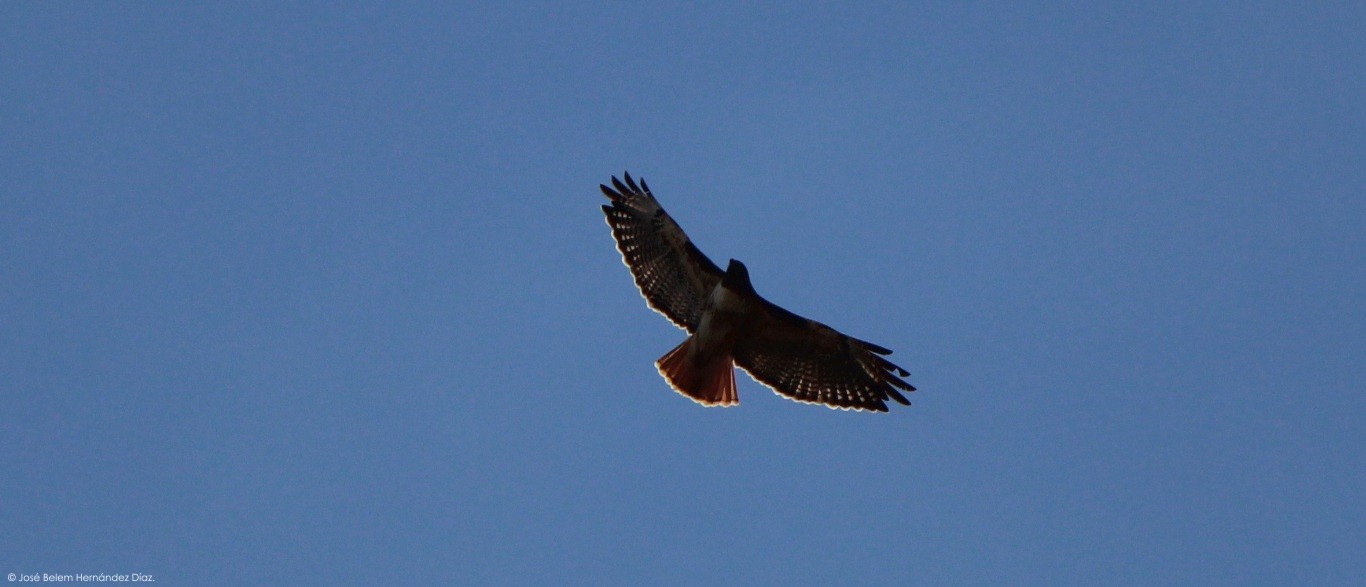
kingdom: Animalia
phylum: Chordata
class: Aves
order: Accipitriformes
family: Accipitridae
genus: Buteo
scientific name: Buteo jamaicensis
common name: Red-tailed hawk
